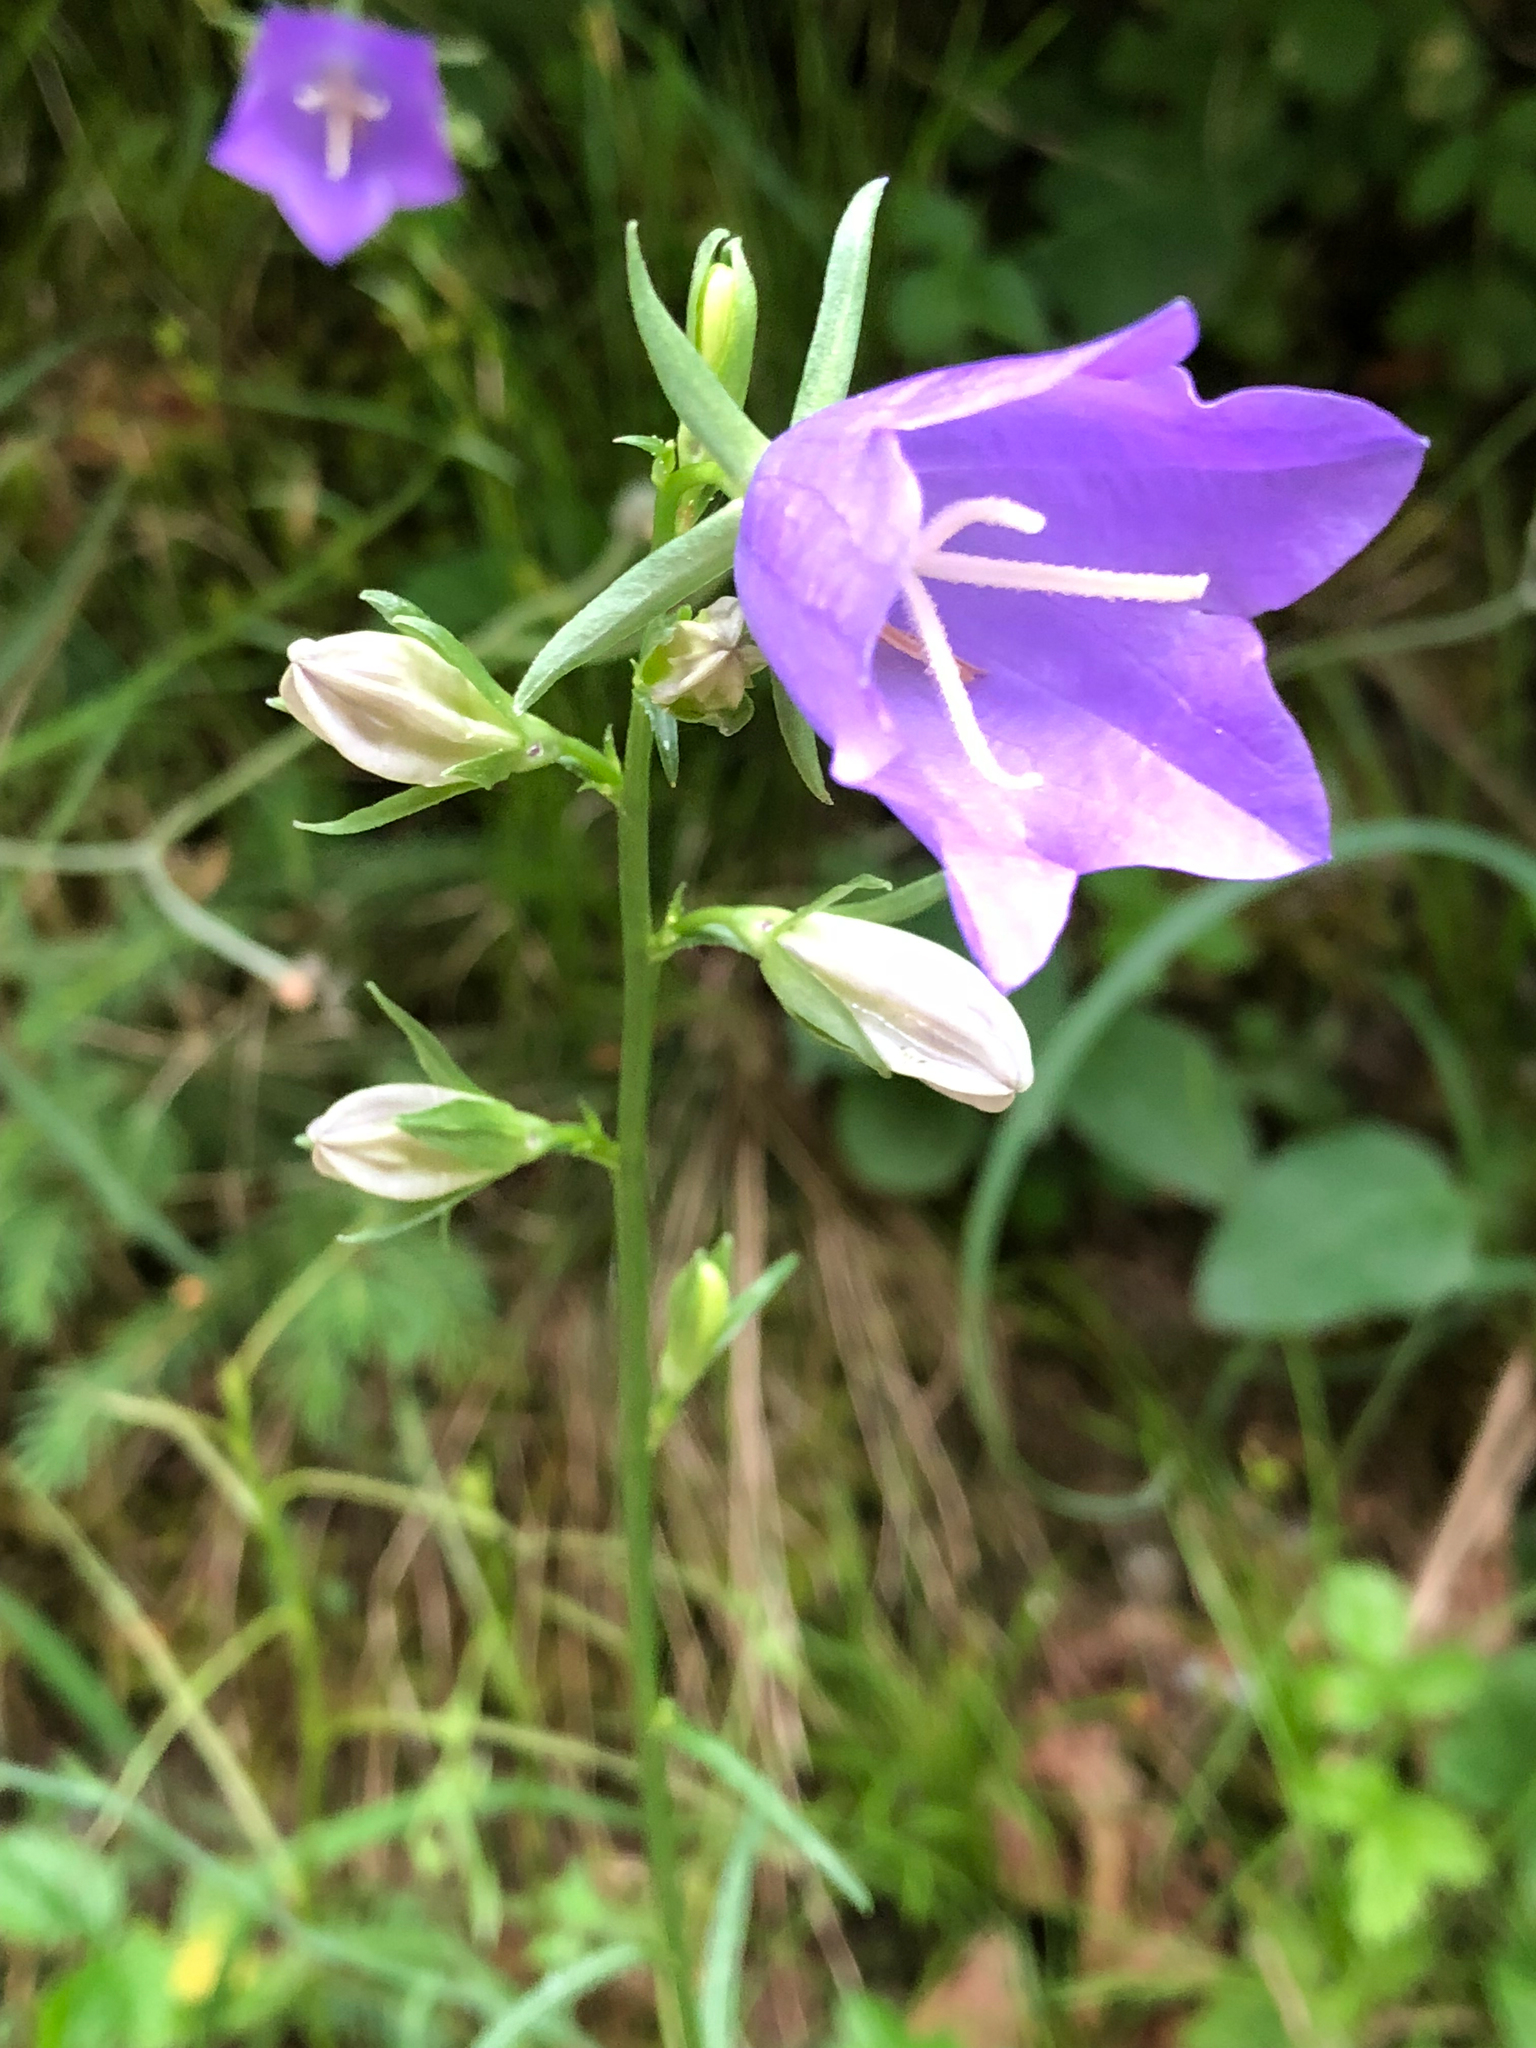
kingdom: Plantae
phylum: Tracheophyta
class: Magnoliopsida
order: Asterales
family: Campanulaceae
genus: Campanula
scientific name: Campanula persicifolia
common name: Peach-leaved bellflower
